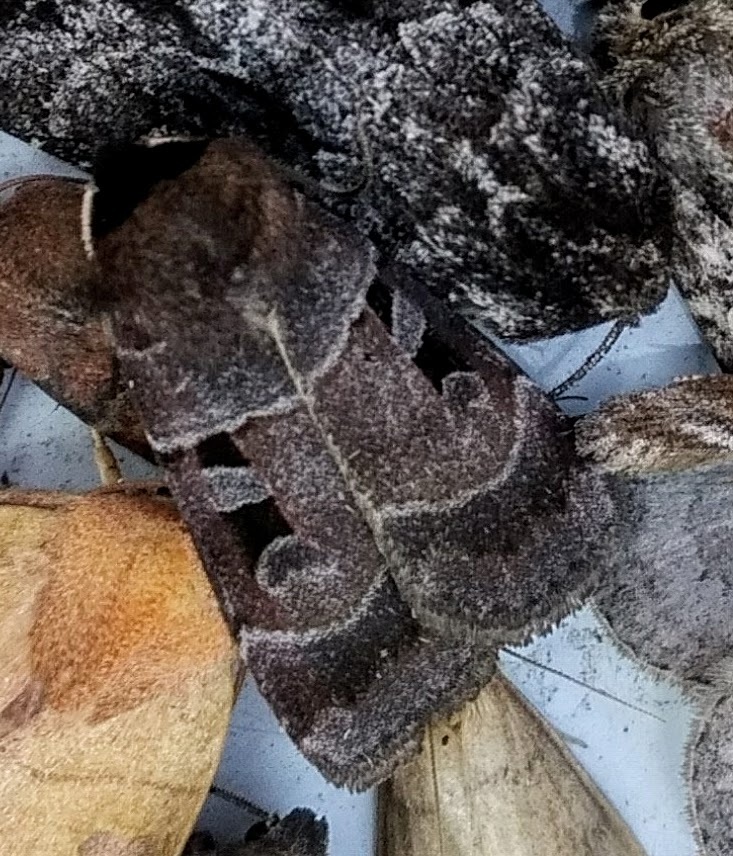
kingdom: Animalia
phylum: Arthropoda
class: Insecta
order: Lepidoptera
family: Noctuidae
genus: Agnorisma
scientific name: Agnorisma bugrai
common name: Collared dart
